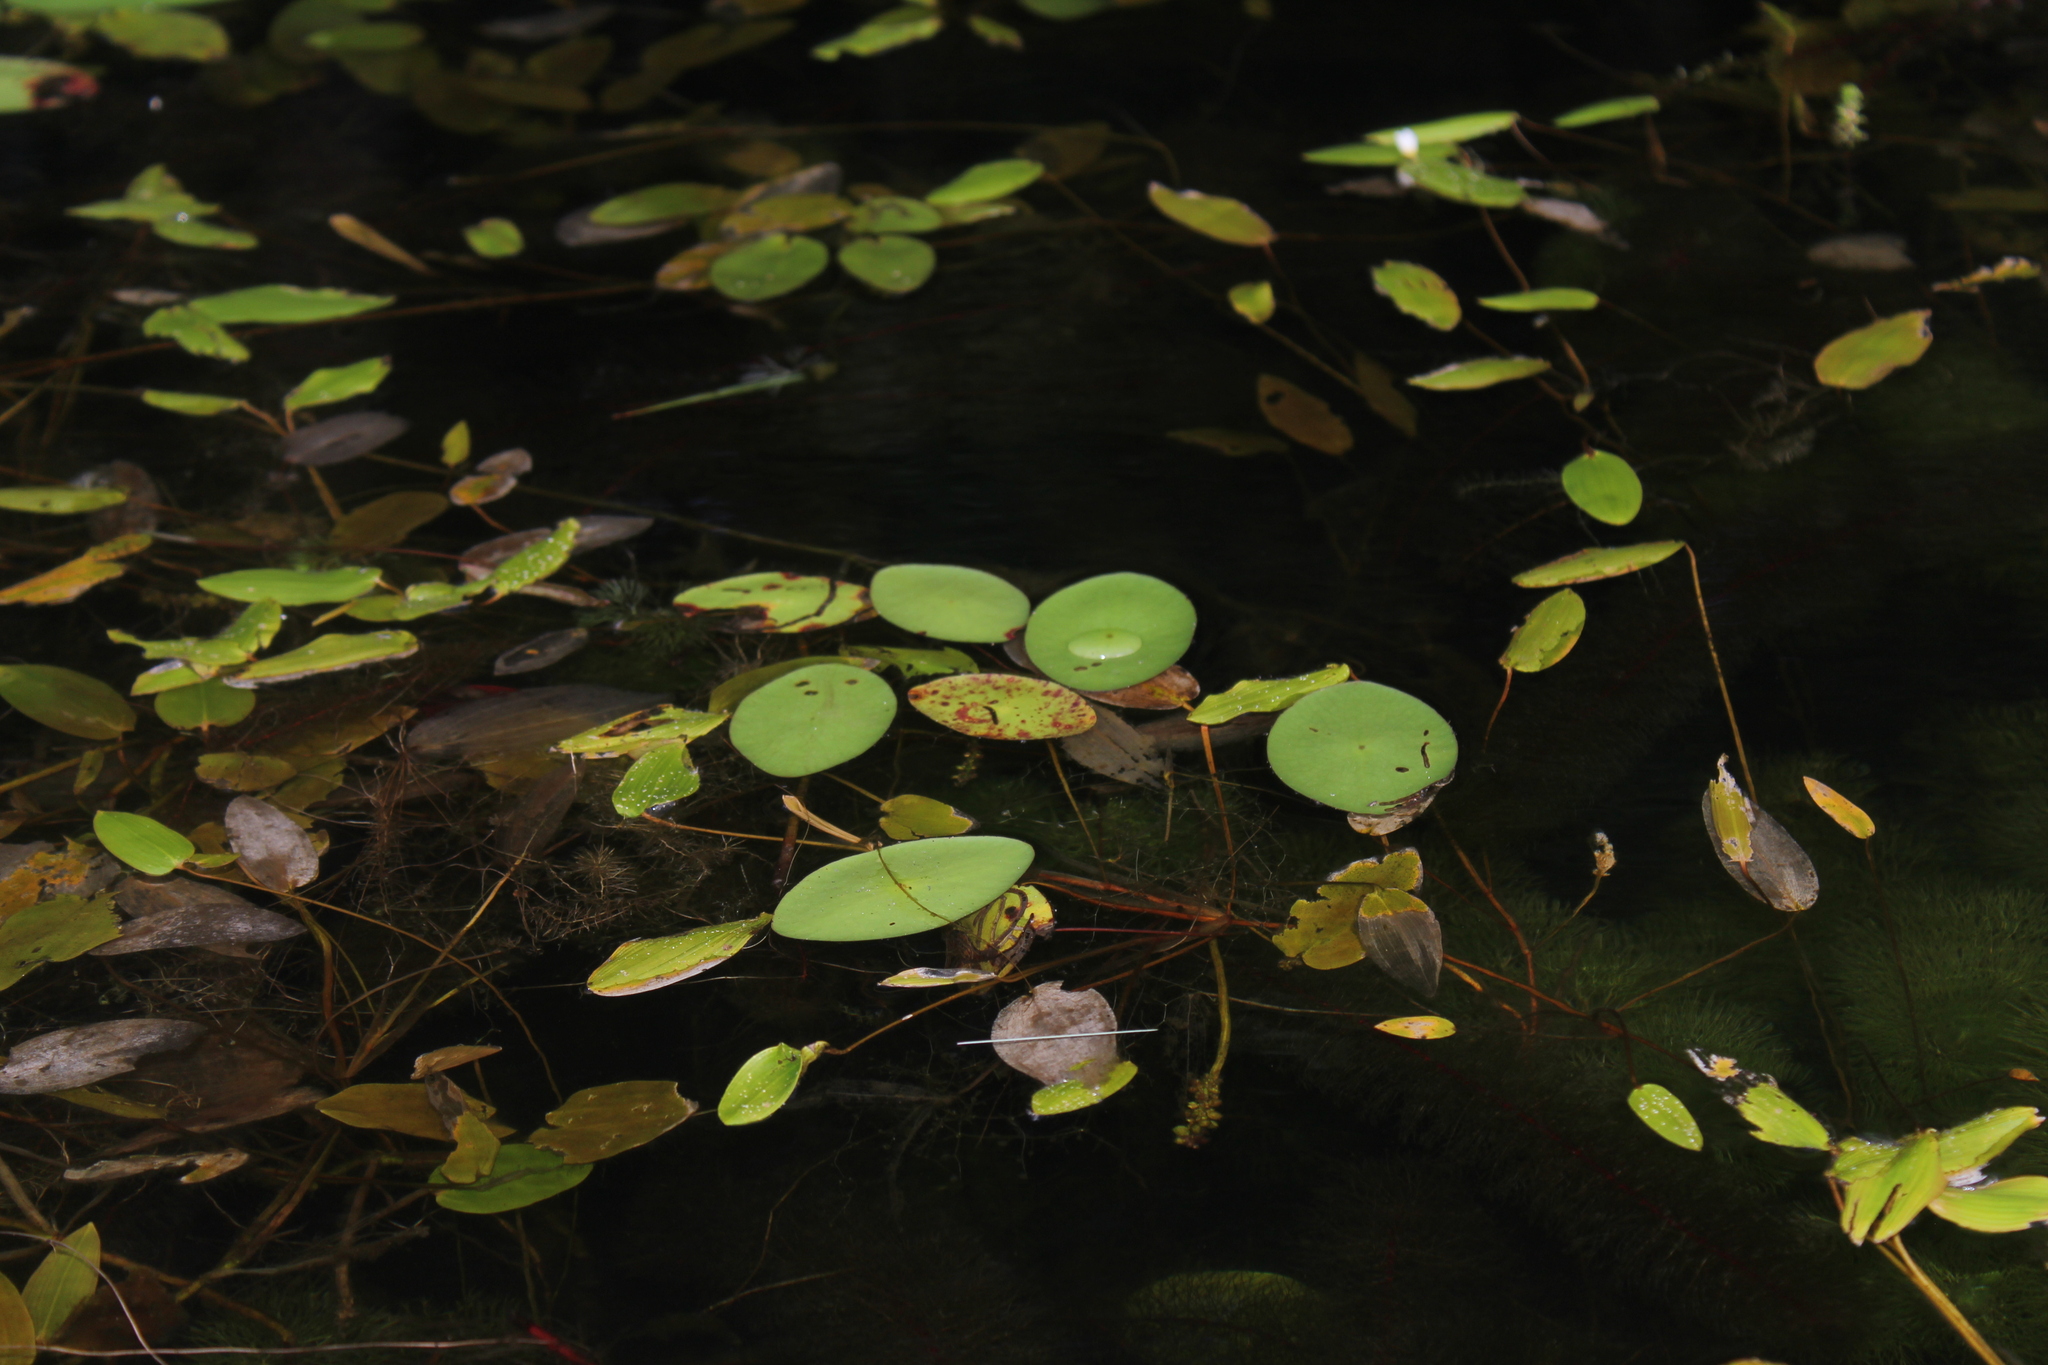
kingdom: Plantae
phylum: Tracheophyta
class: Liliopsida
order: Alismatales
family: Potamogetonaceae
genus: Potamogeton
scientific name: Potamogeton natans
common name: Broad-leaved pondweed
